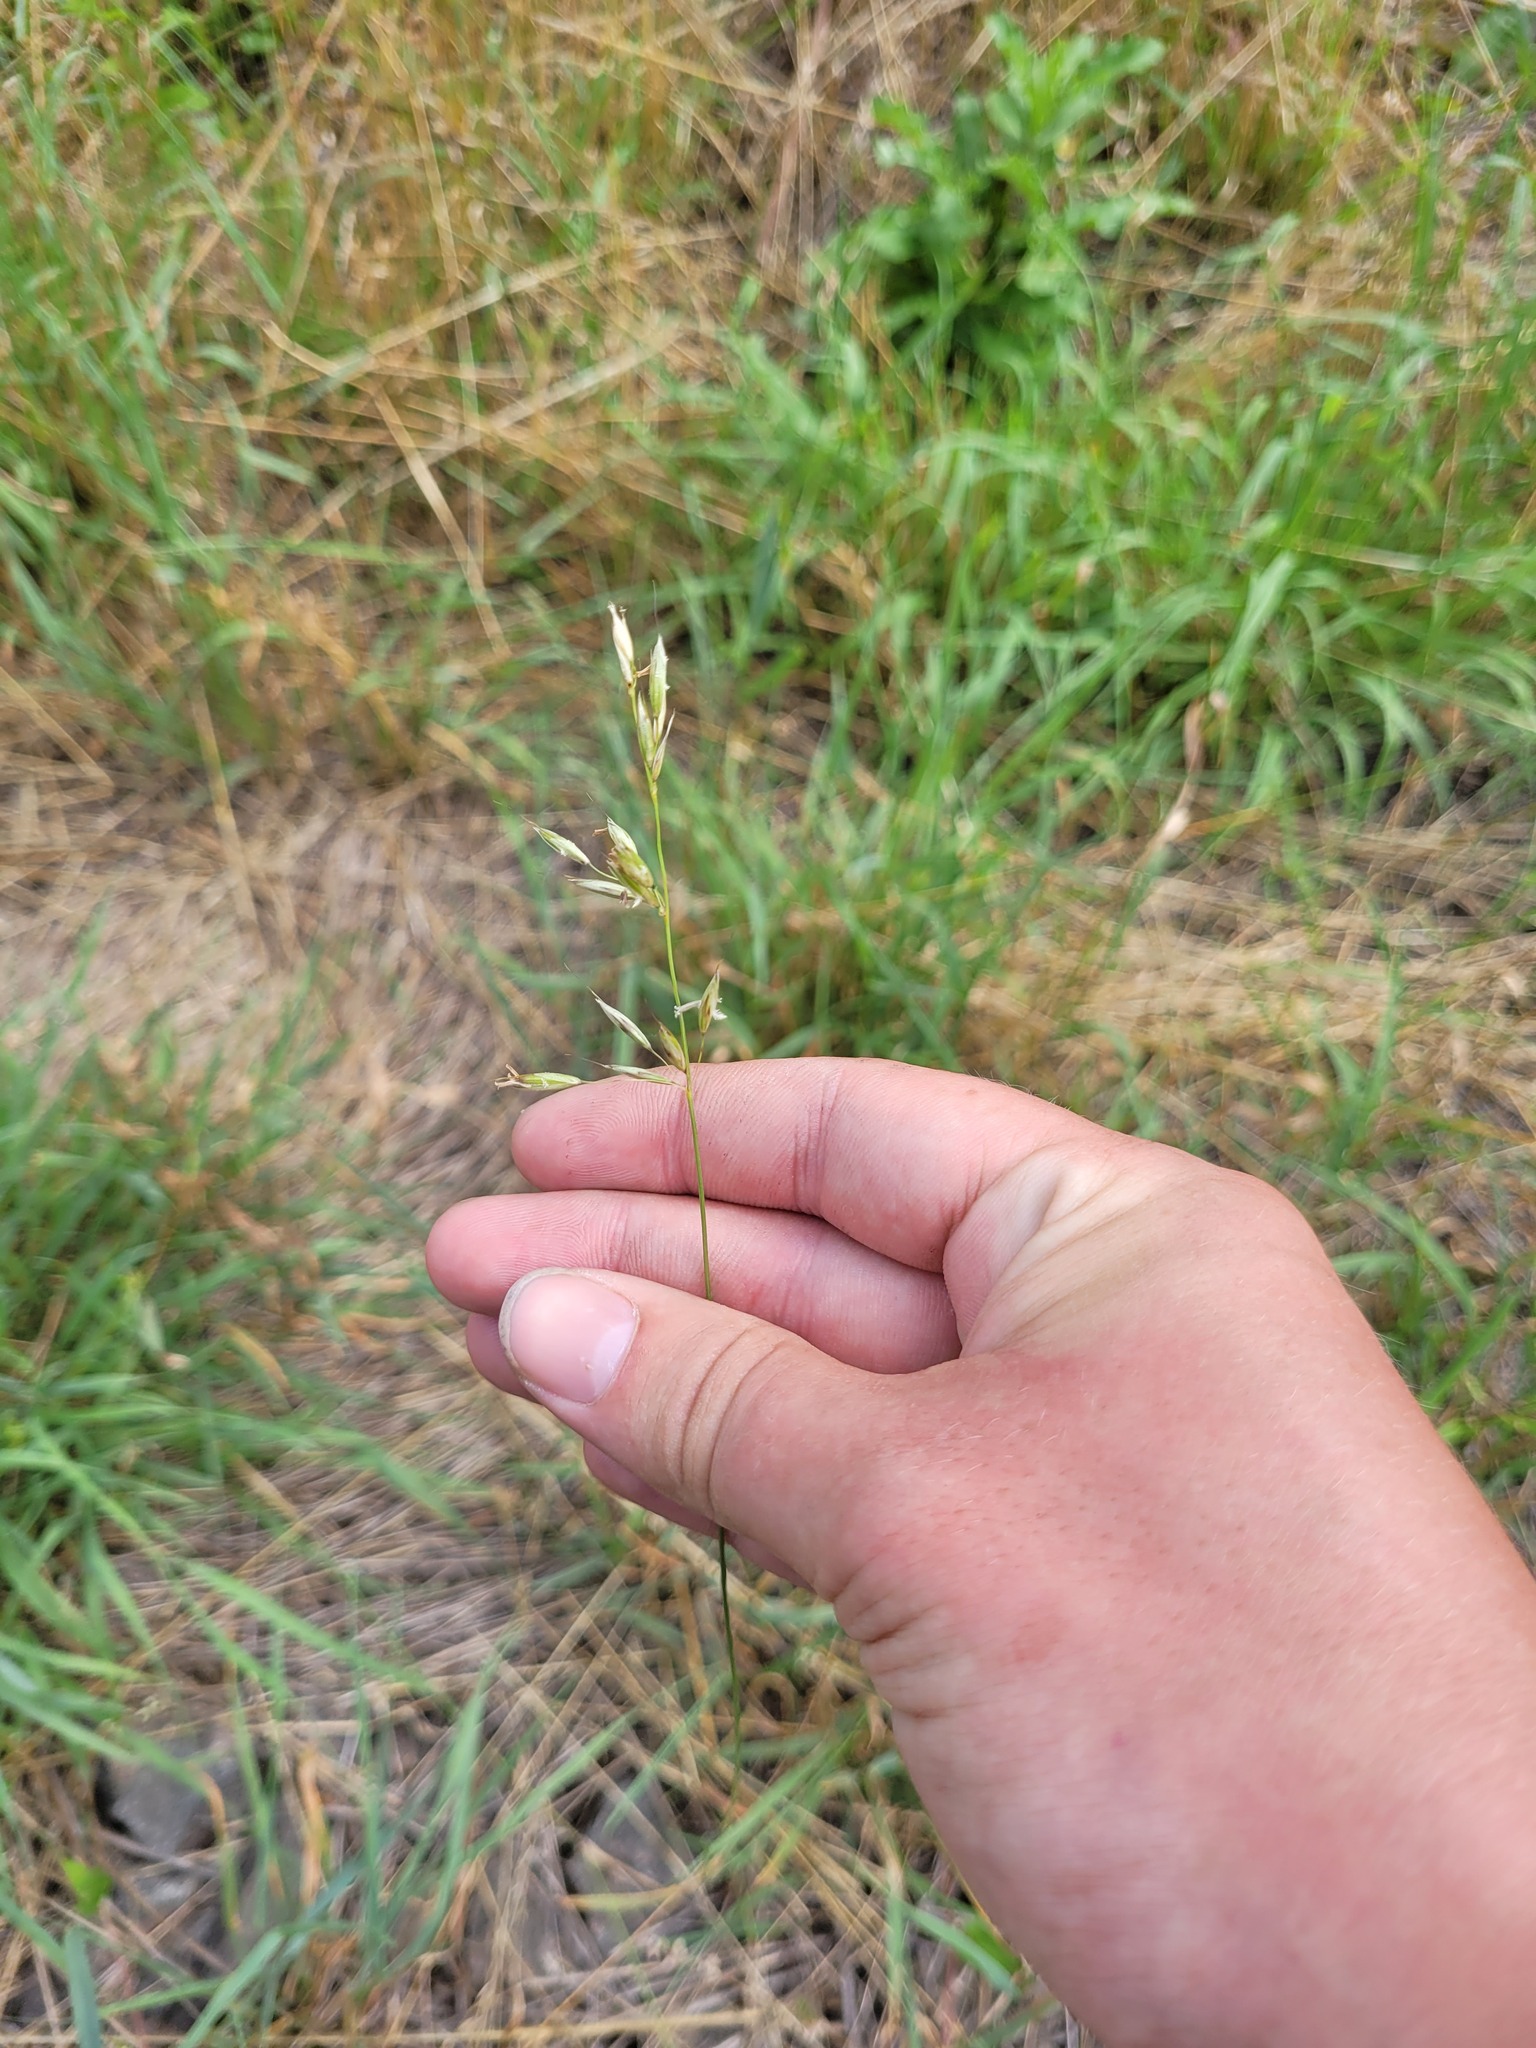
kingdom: Plantae
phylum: Tracheophyta
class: Liliopsida
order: Poales
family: Poaceae
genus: Arrhenatherum
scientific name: Arrhenatherum elatius
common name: Tall oatgrass
